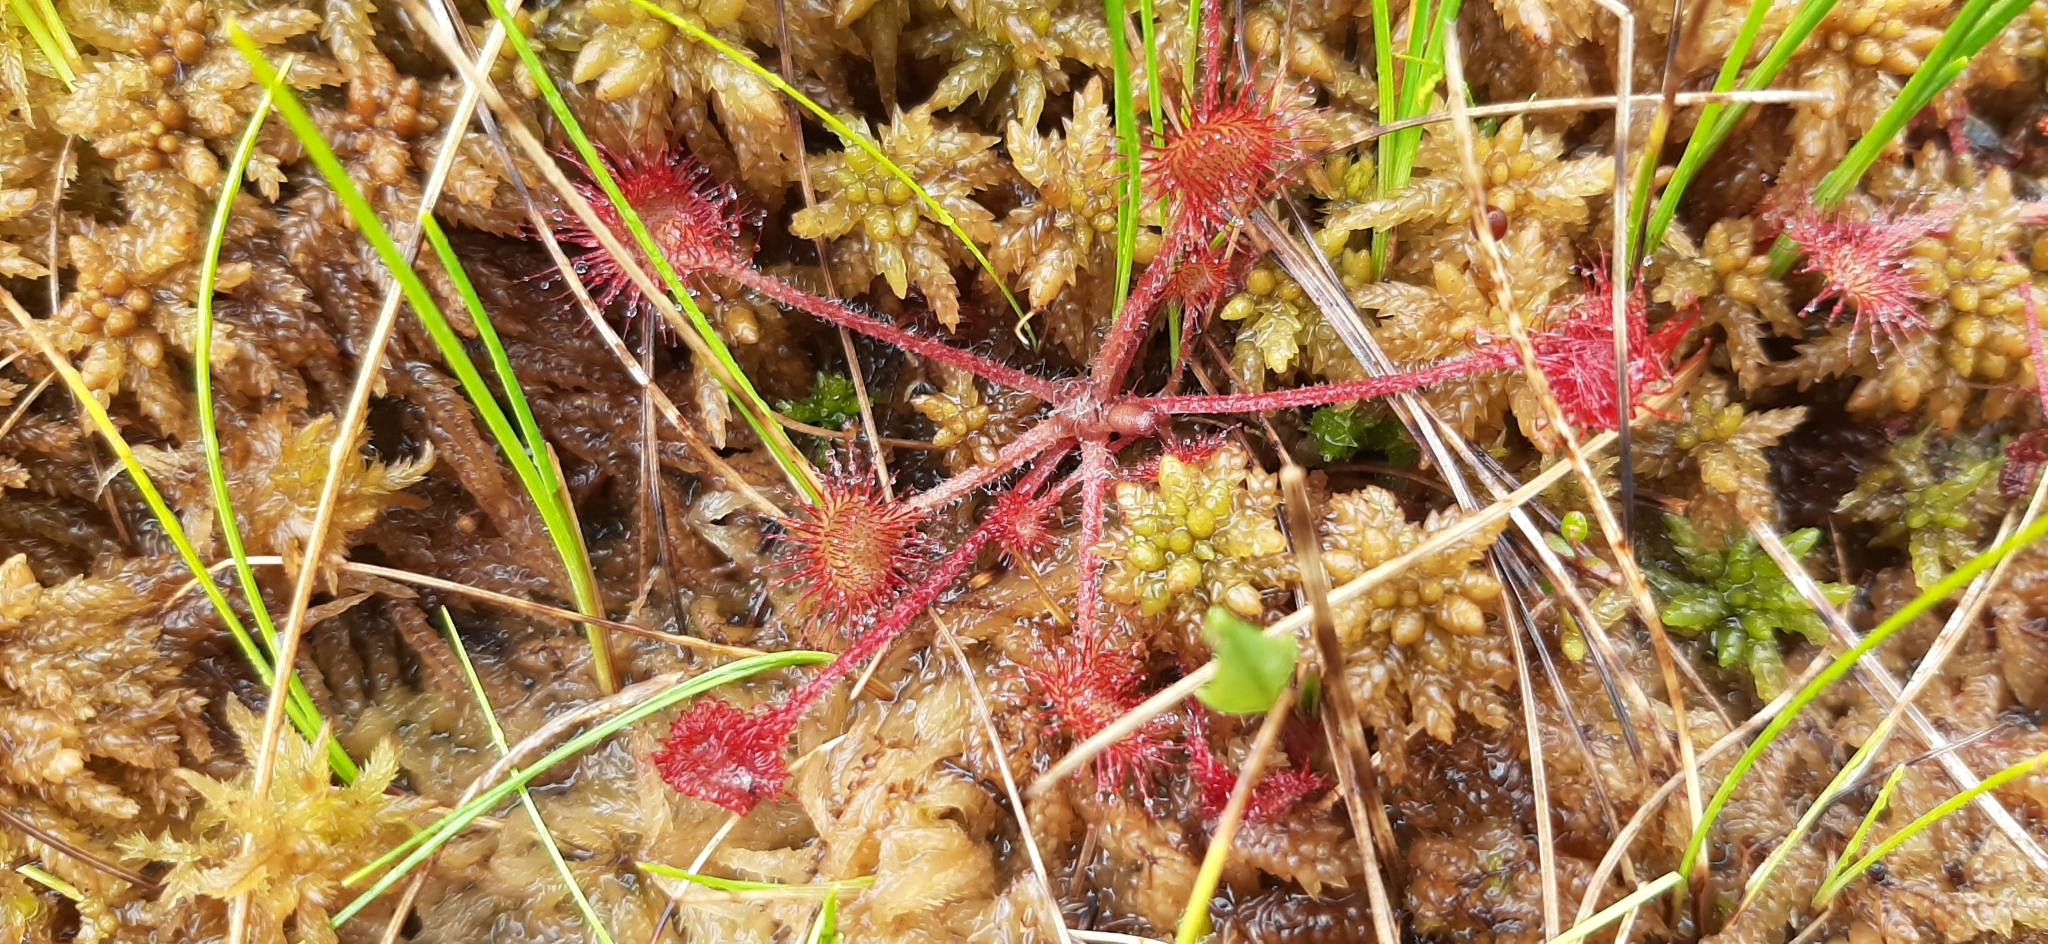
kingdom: Plantae
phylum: Tracheophyta
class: Magnoliopsida
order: Caryophyllales
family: Droseraceae
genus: Drosera
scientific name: Drosera rotundifolia
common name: Round-leaved sundew
